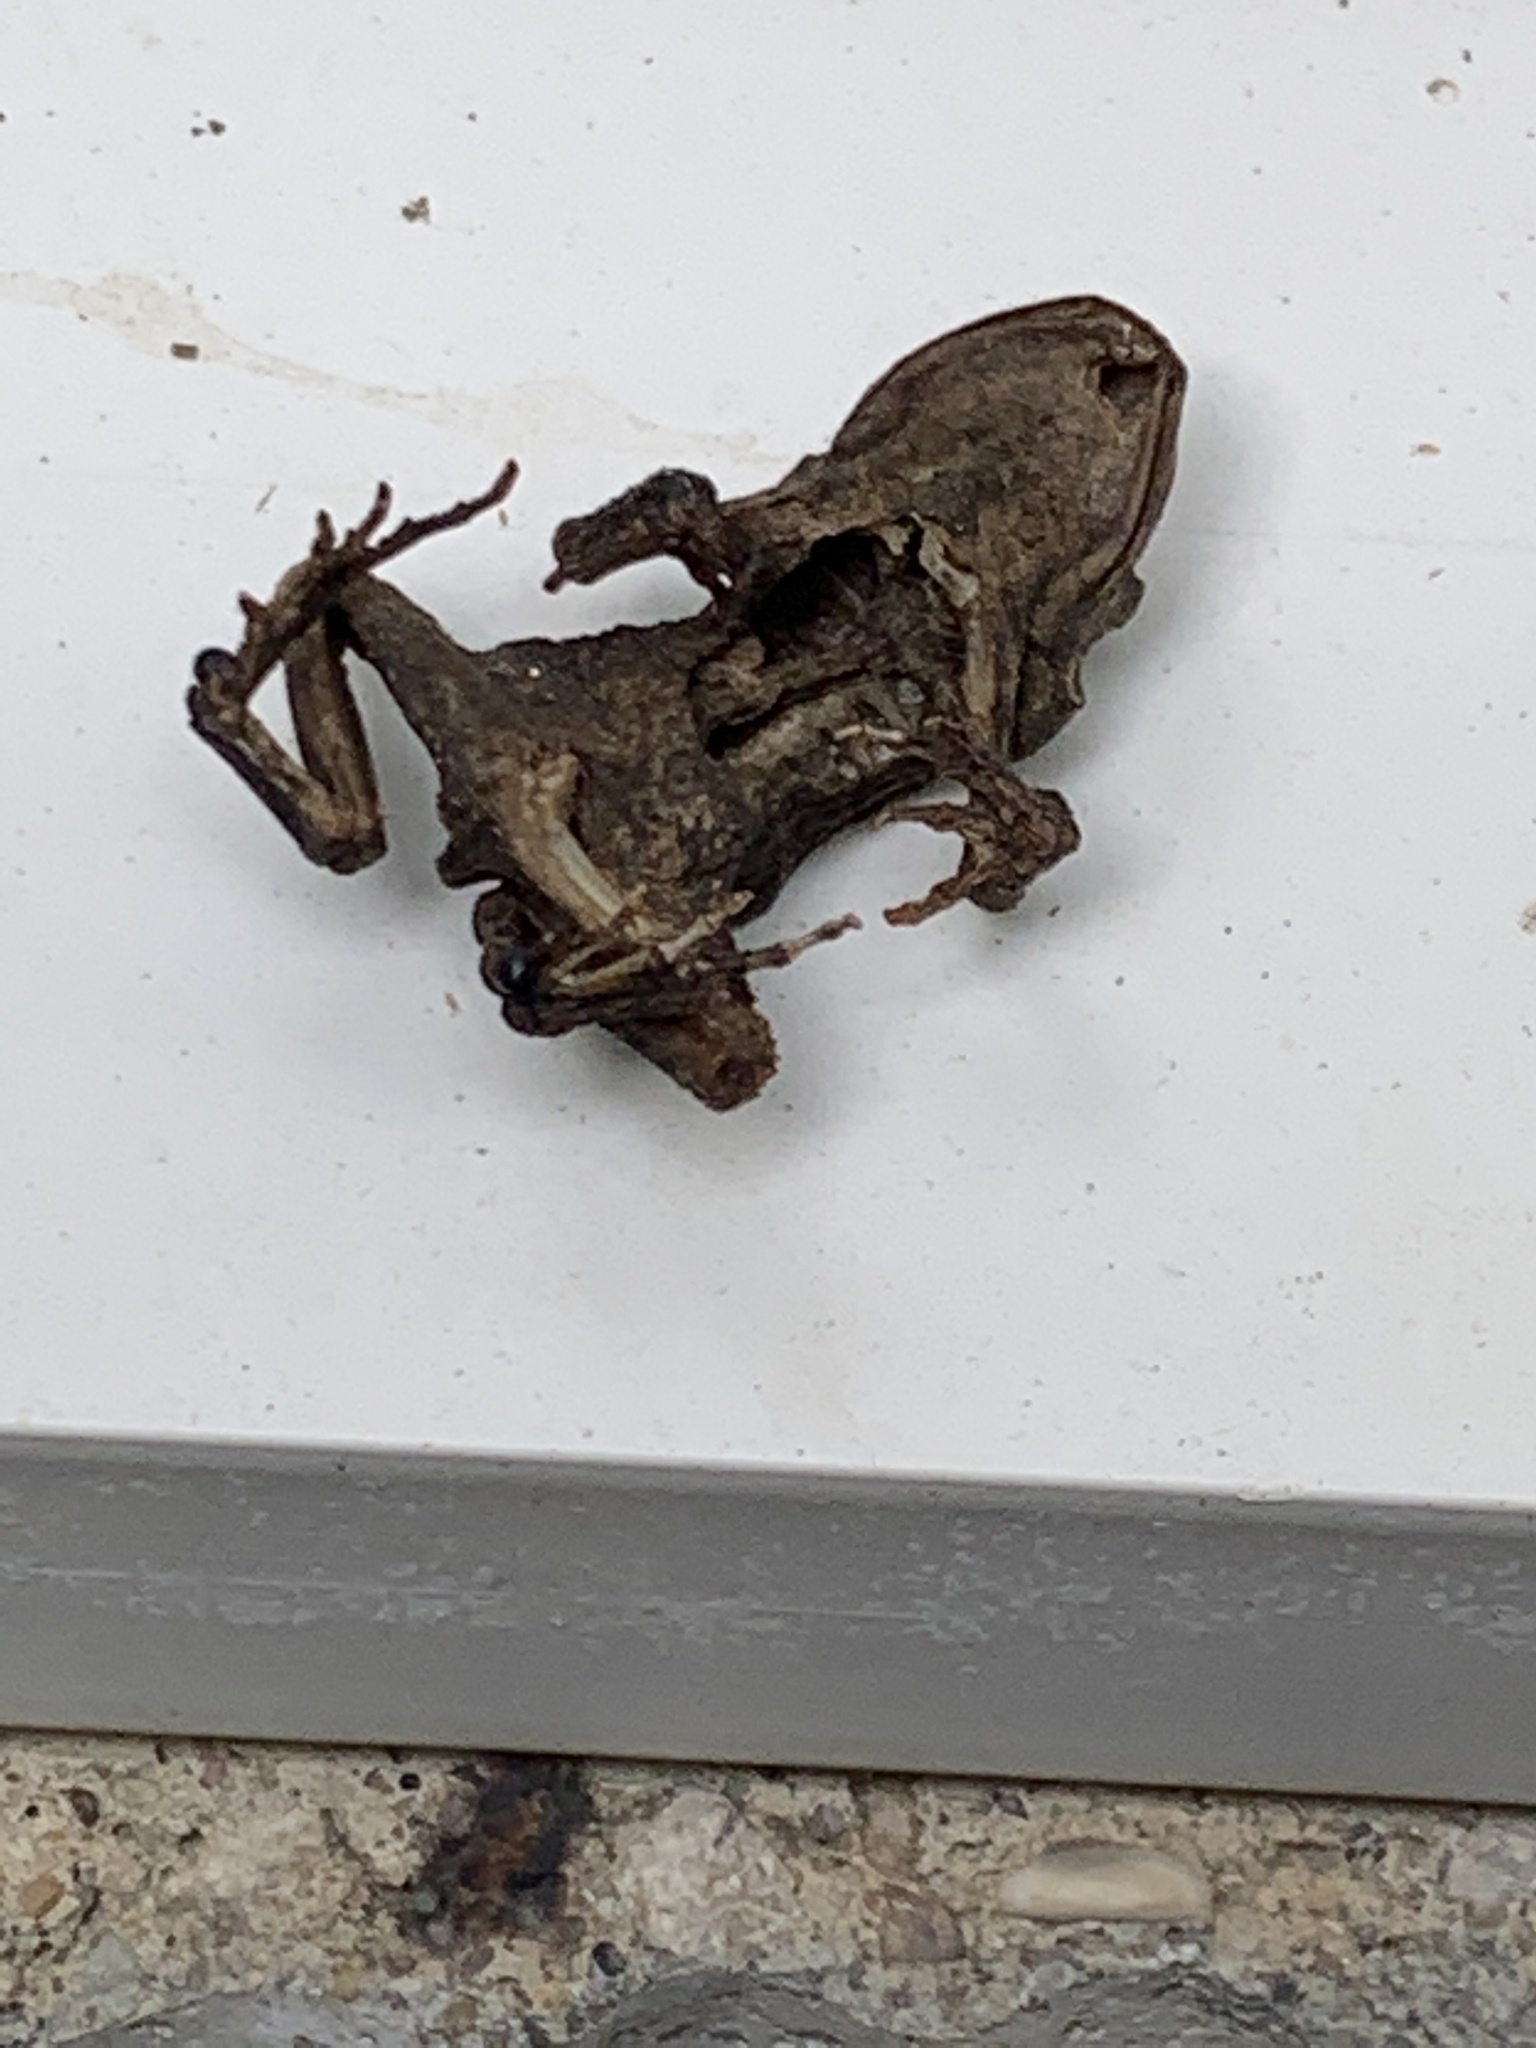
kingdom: Animalia
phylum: Chordata
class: Amphibia
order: Anura
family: Bufonidae
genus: Anaxyrus
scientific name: Anaxyrus americanus
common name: American toad
